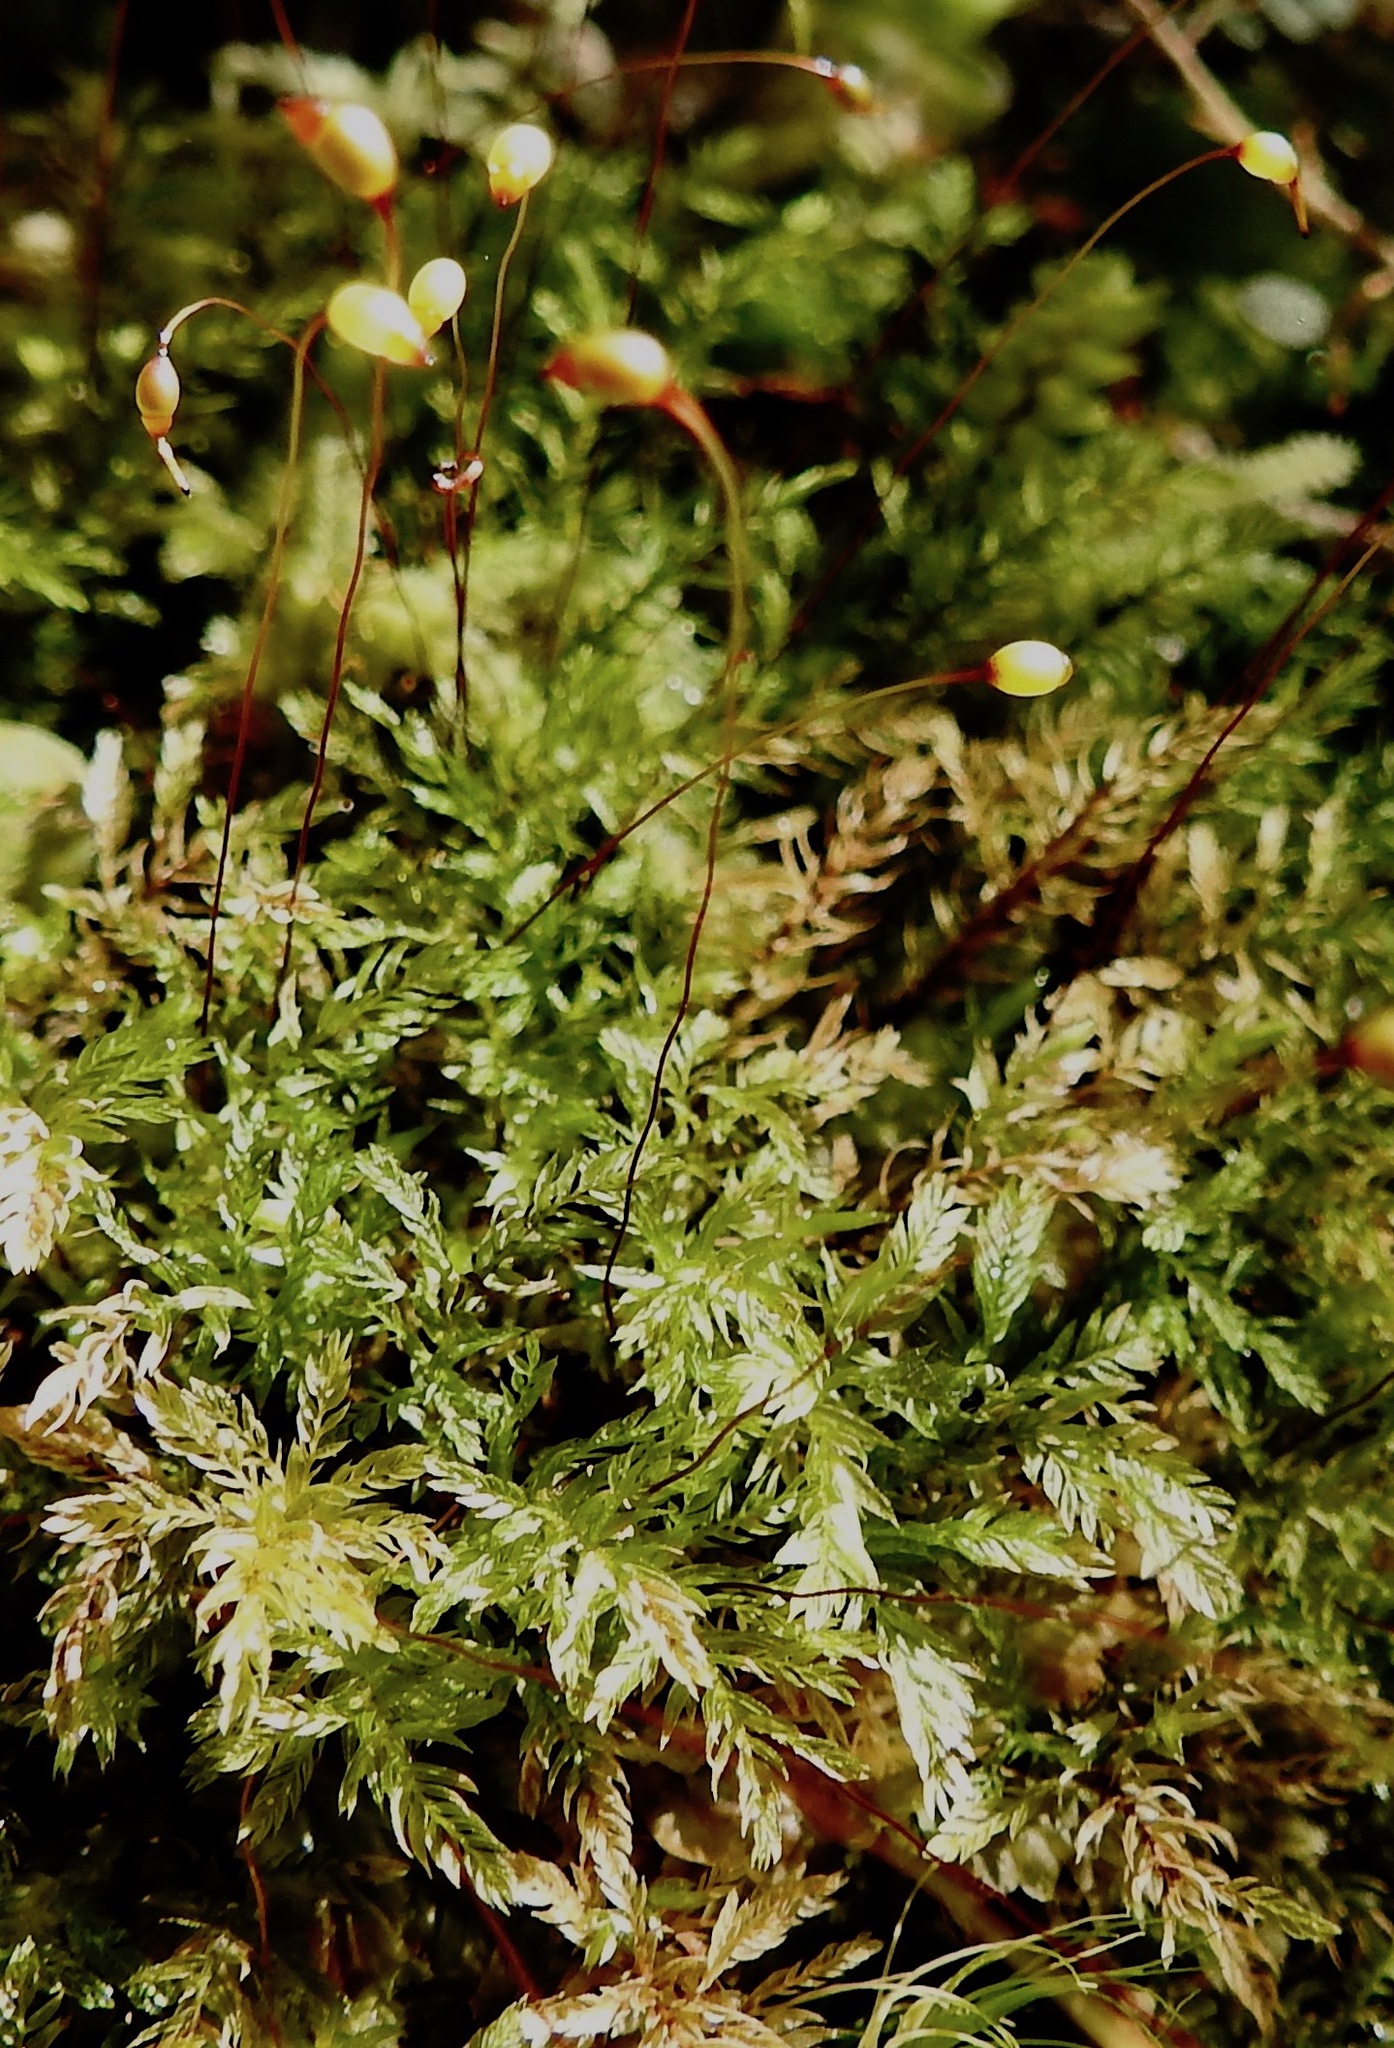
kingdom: Plantae
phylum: Bryophyta
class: Bryopsida
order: Aulacomniales
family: Aulacomniaceae
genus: Hymenodontopsis
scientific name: Hymenodontopsis bifaria
